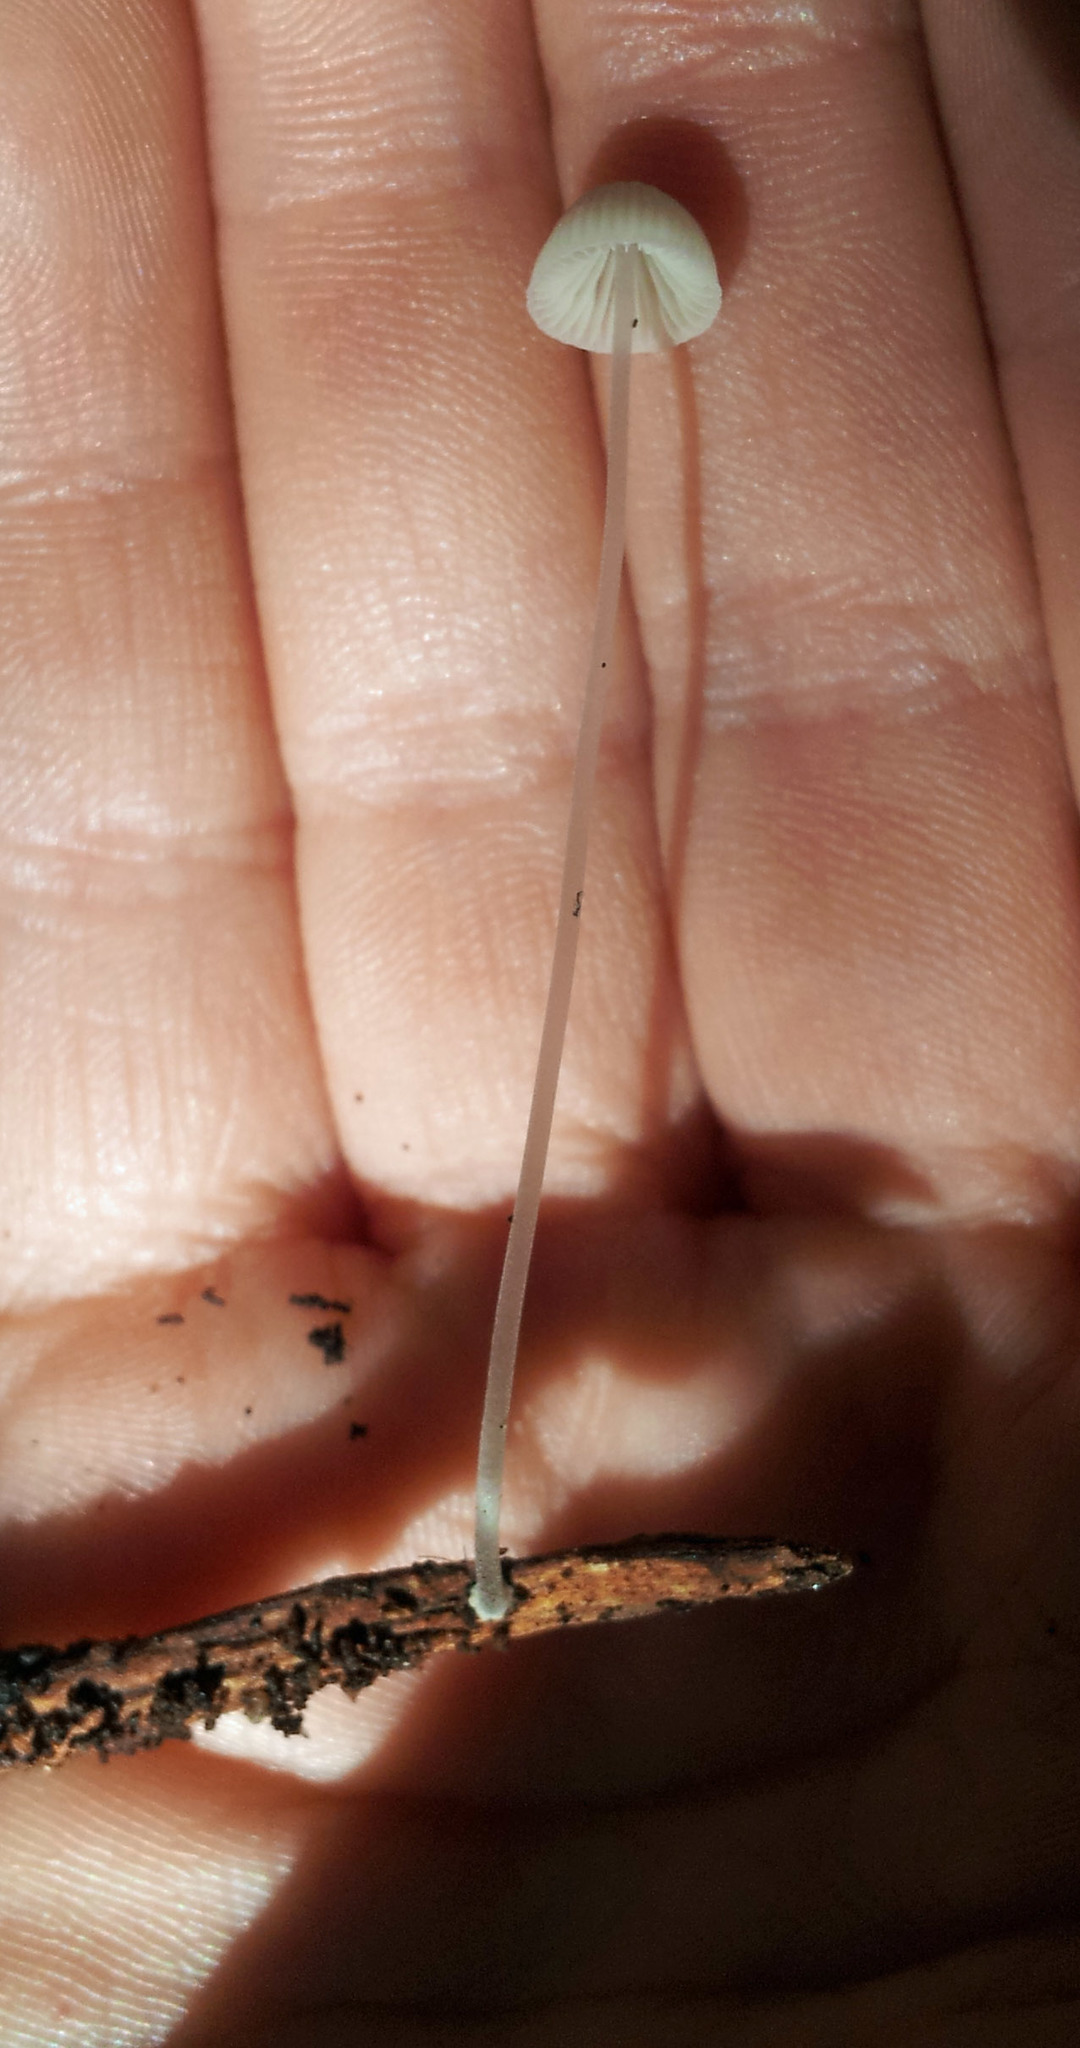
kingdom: Fungi
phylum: Basidiomycota
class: Agaricomycetes
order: Agaricales
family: Mycenaceae
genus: Mycena
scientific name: Mycena amicta
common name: Coldfoot bonnet
